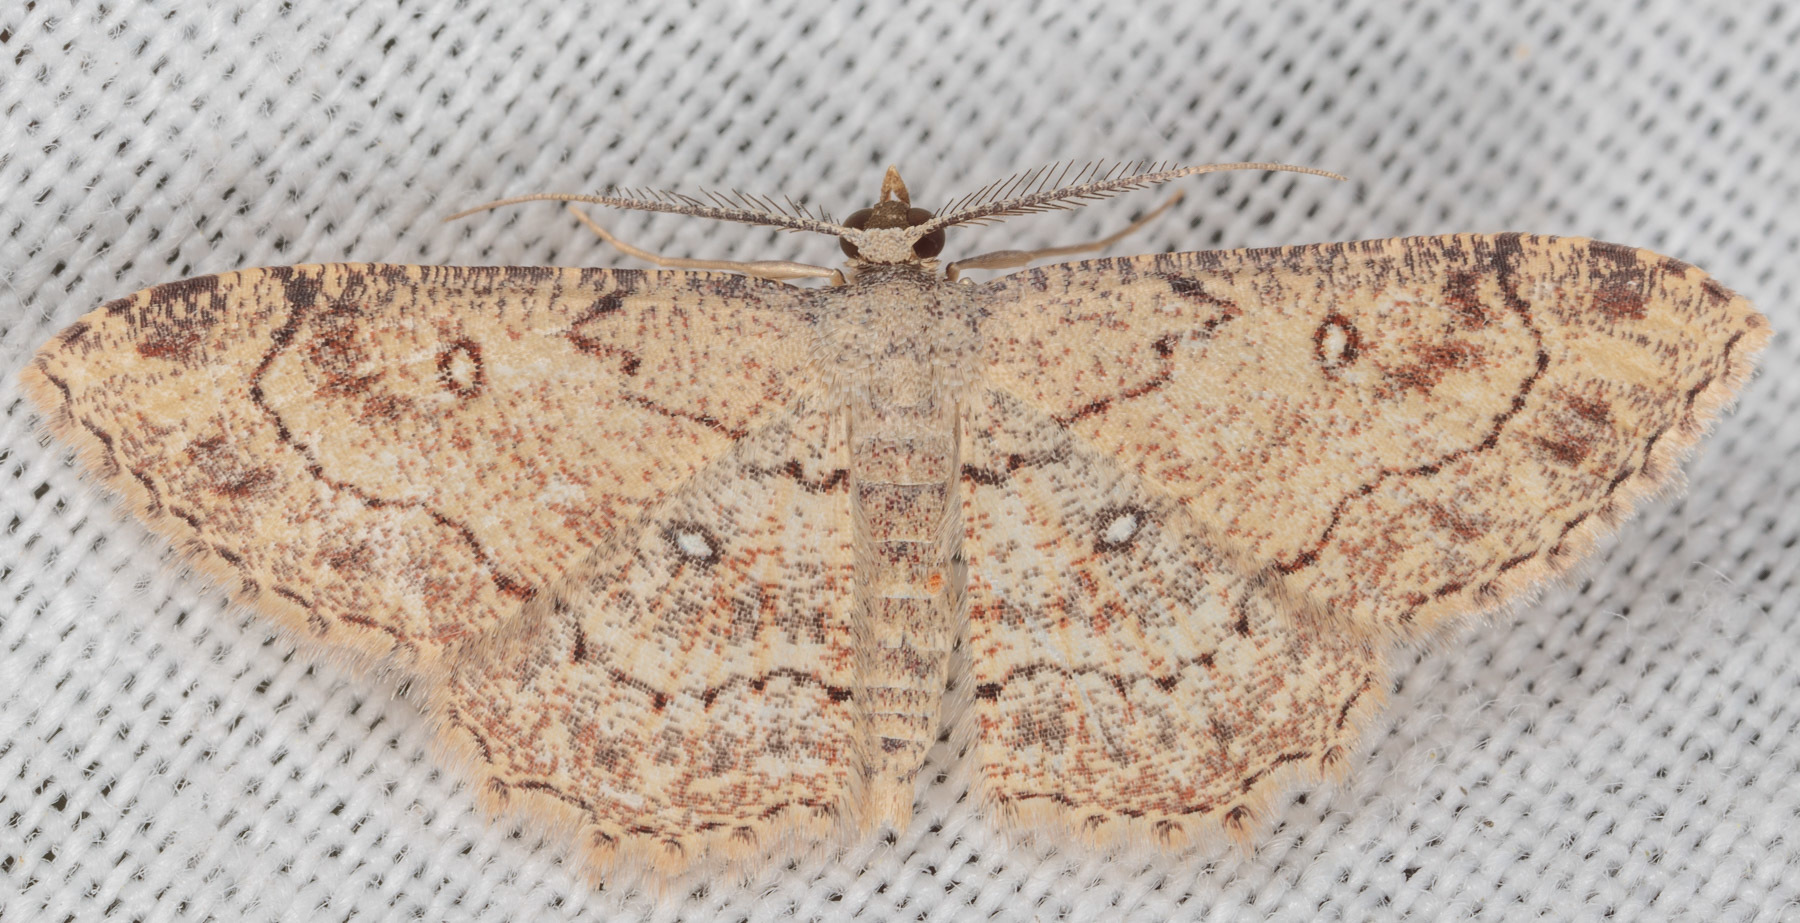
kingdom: Animalia
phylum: Arthropoda
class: Insecta
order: Lepidoptera
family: Geometridae
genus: Cyclophora
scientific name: Cyclophora nanaria
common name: Cankerworm
